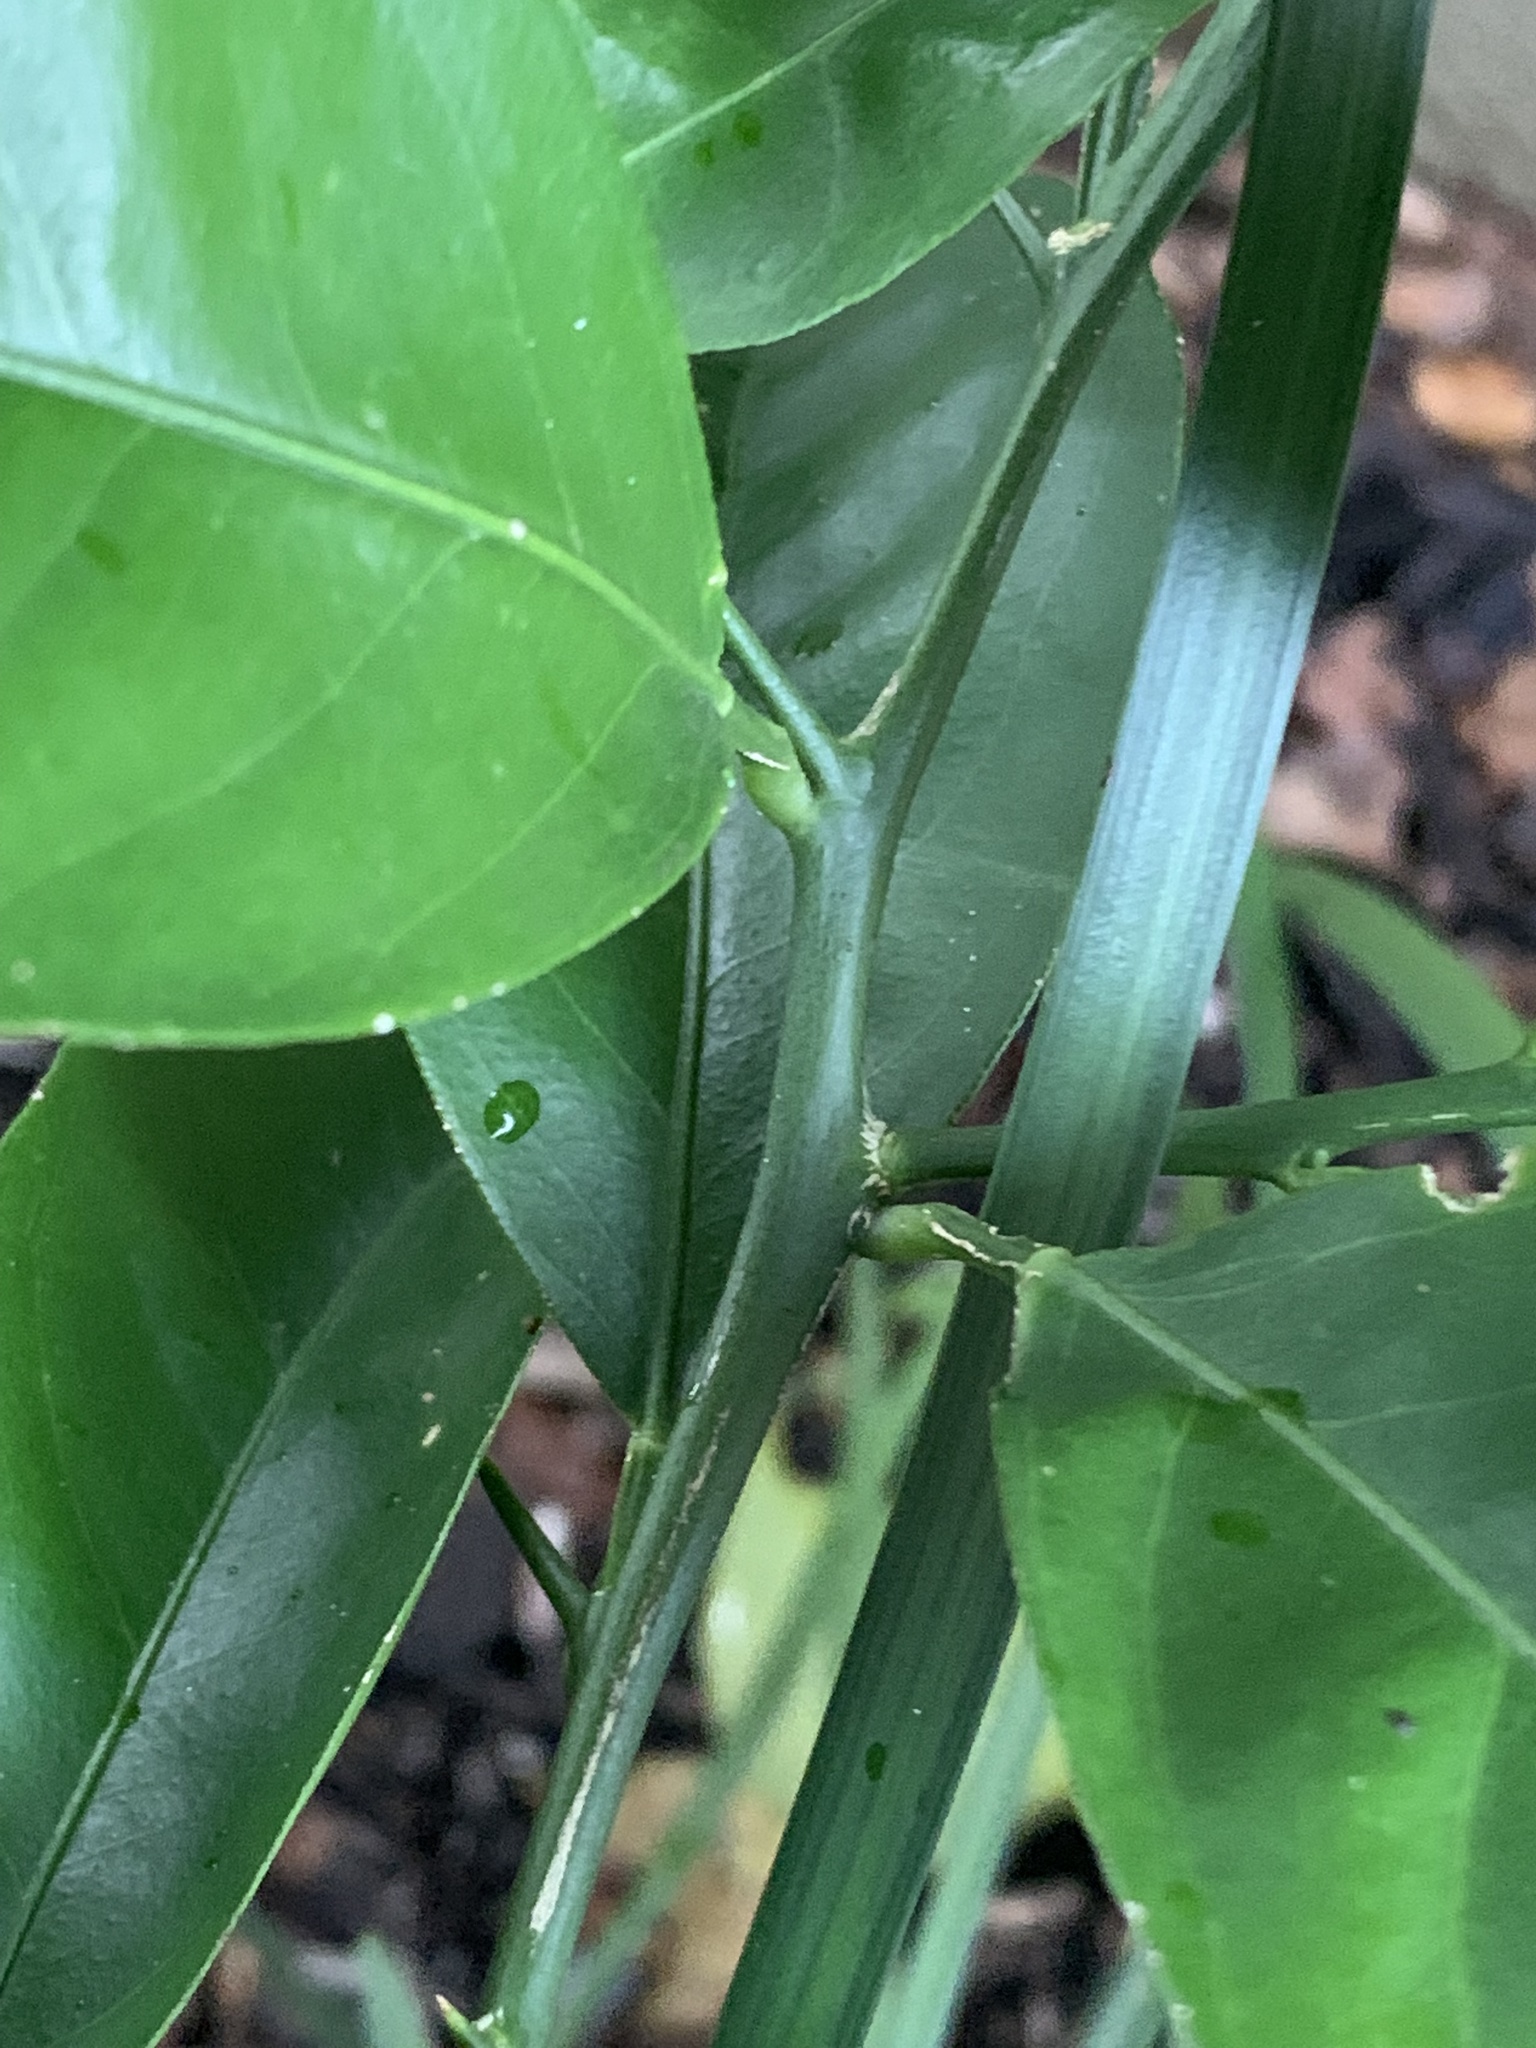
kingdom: Plantae
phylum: Tracheophyta
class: Magnoliopsida
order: Sapindales
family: Rutaceae
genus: Citrus
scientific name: Citrus aurantium
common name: Sour orange
